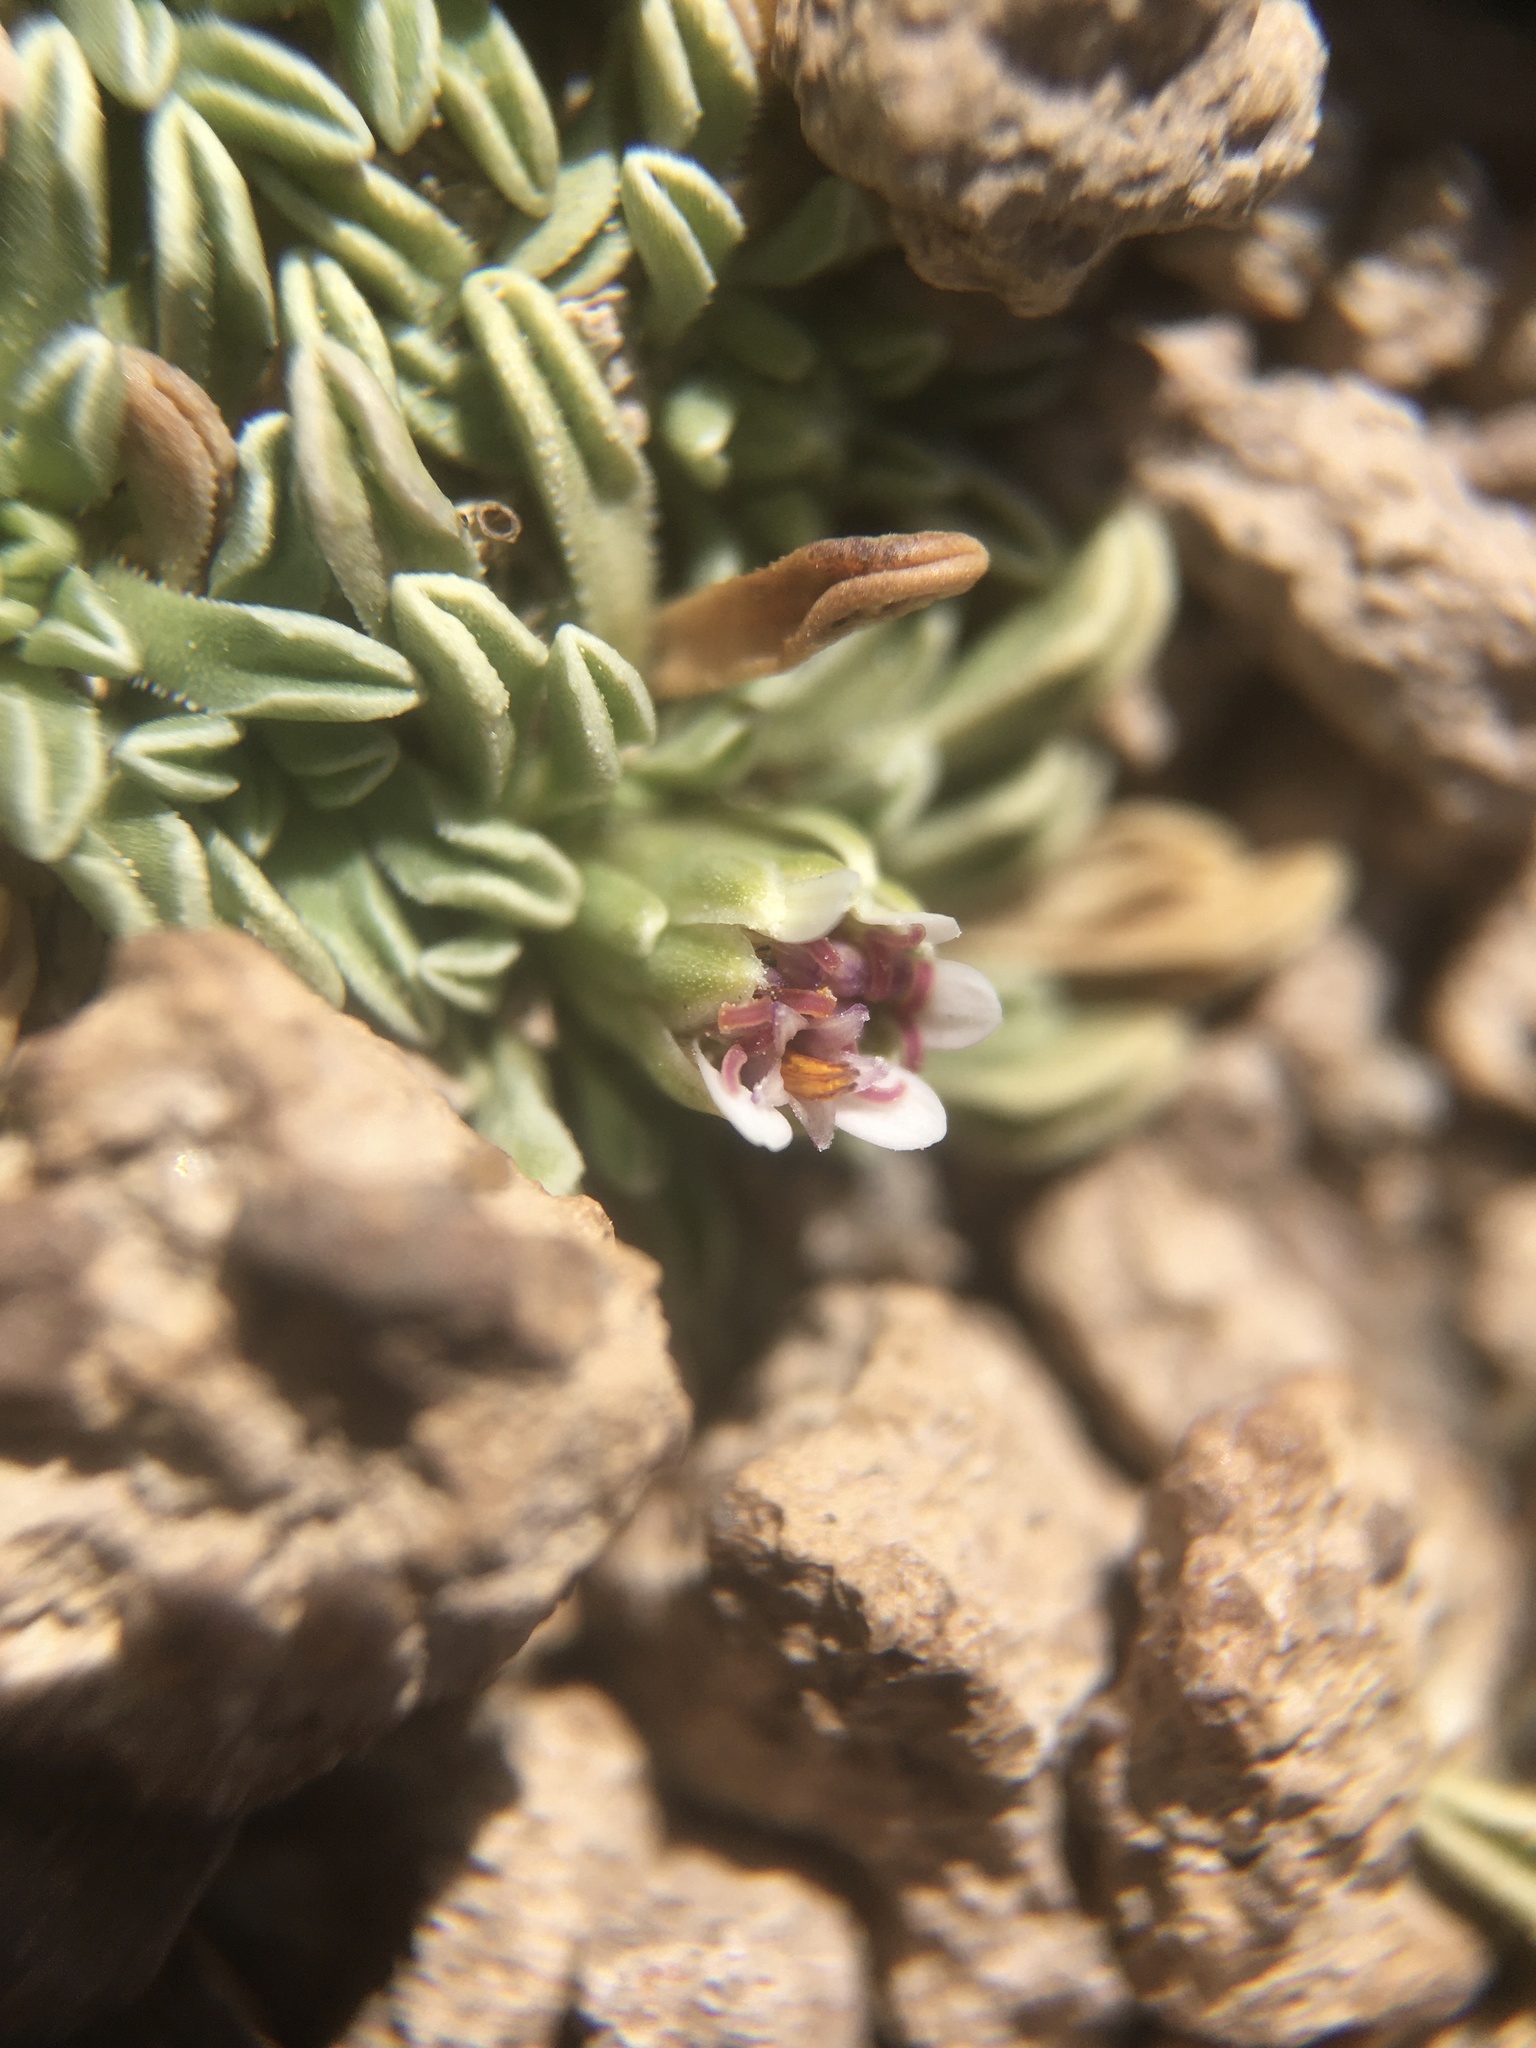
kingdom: Plantae
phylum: Tracheophyta
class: Magnoliopsida
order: Asterales
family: Asteraceae
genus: Rockhausenia
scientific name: Rockhausenia aretioides
